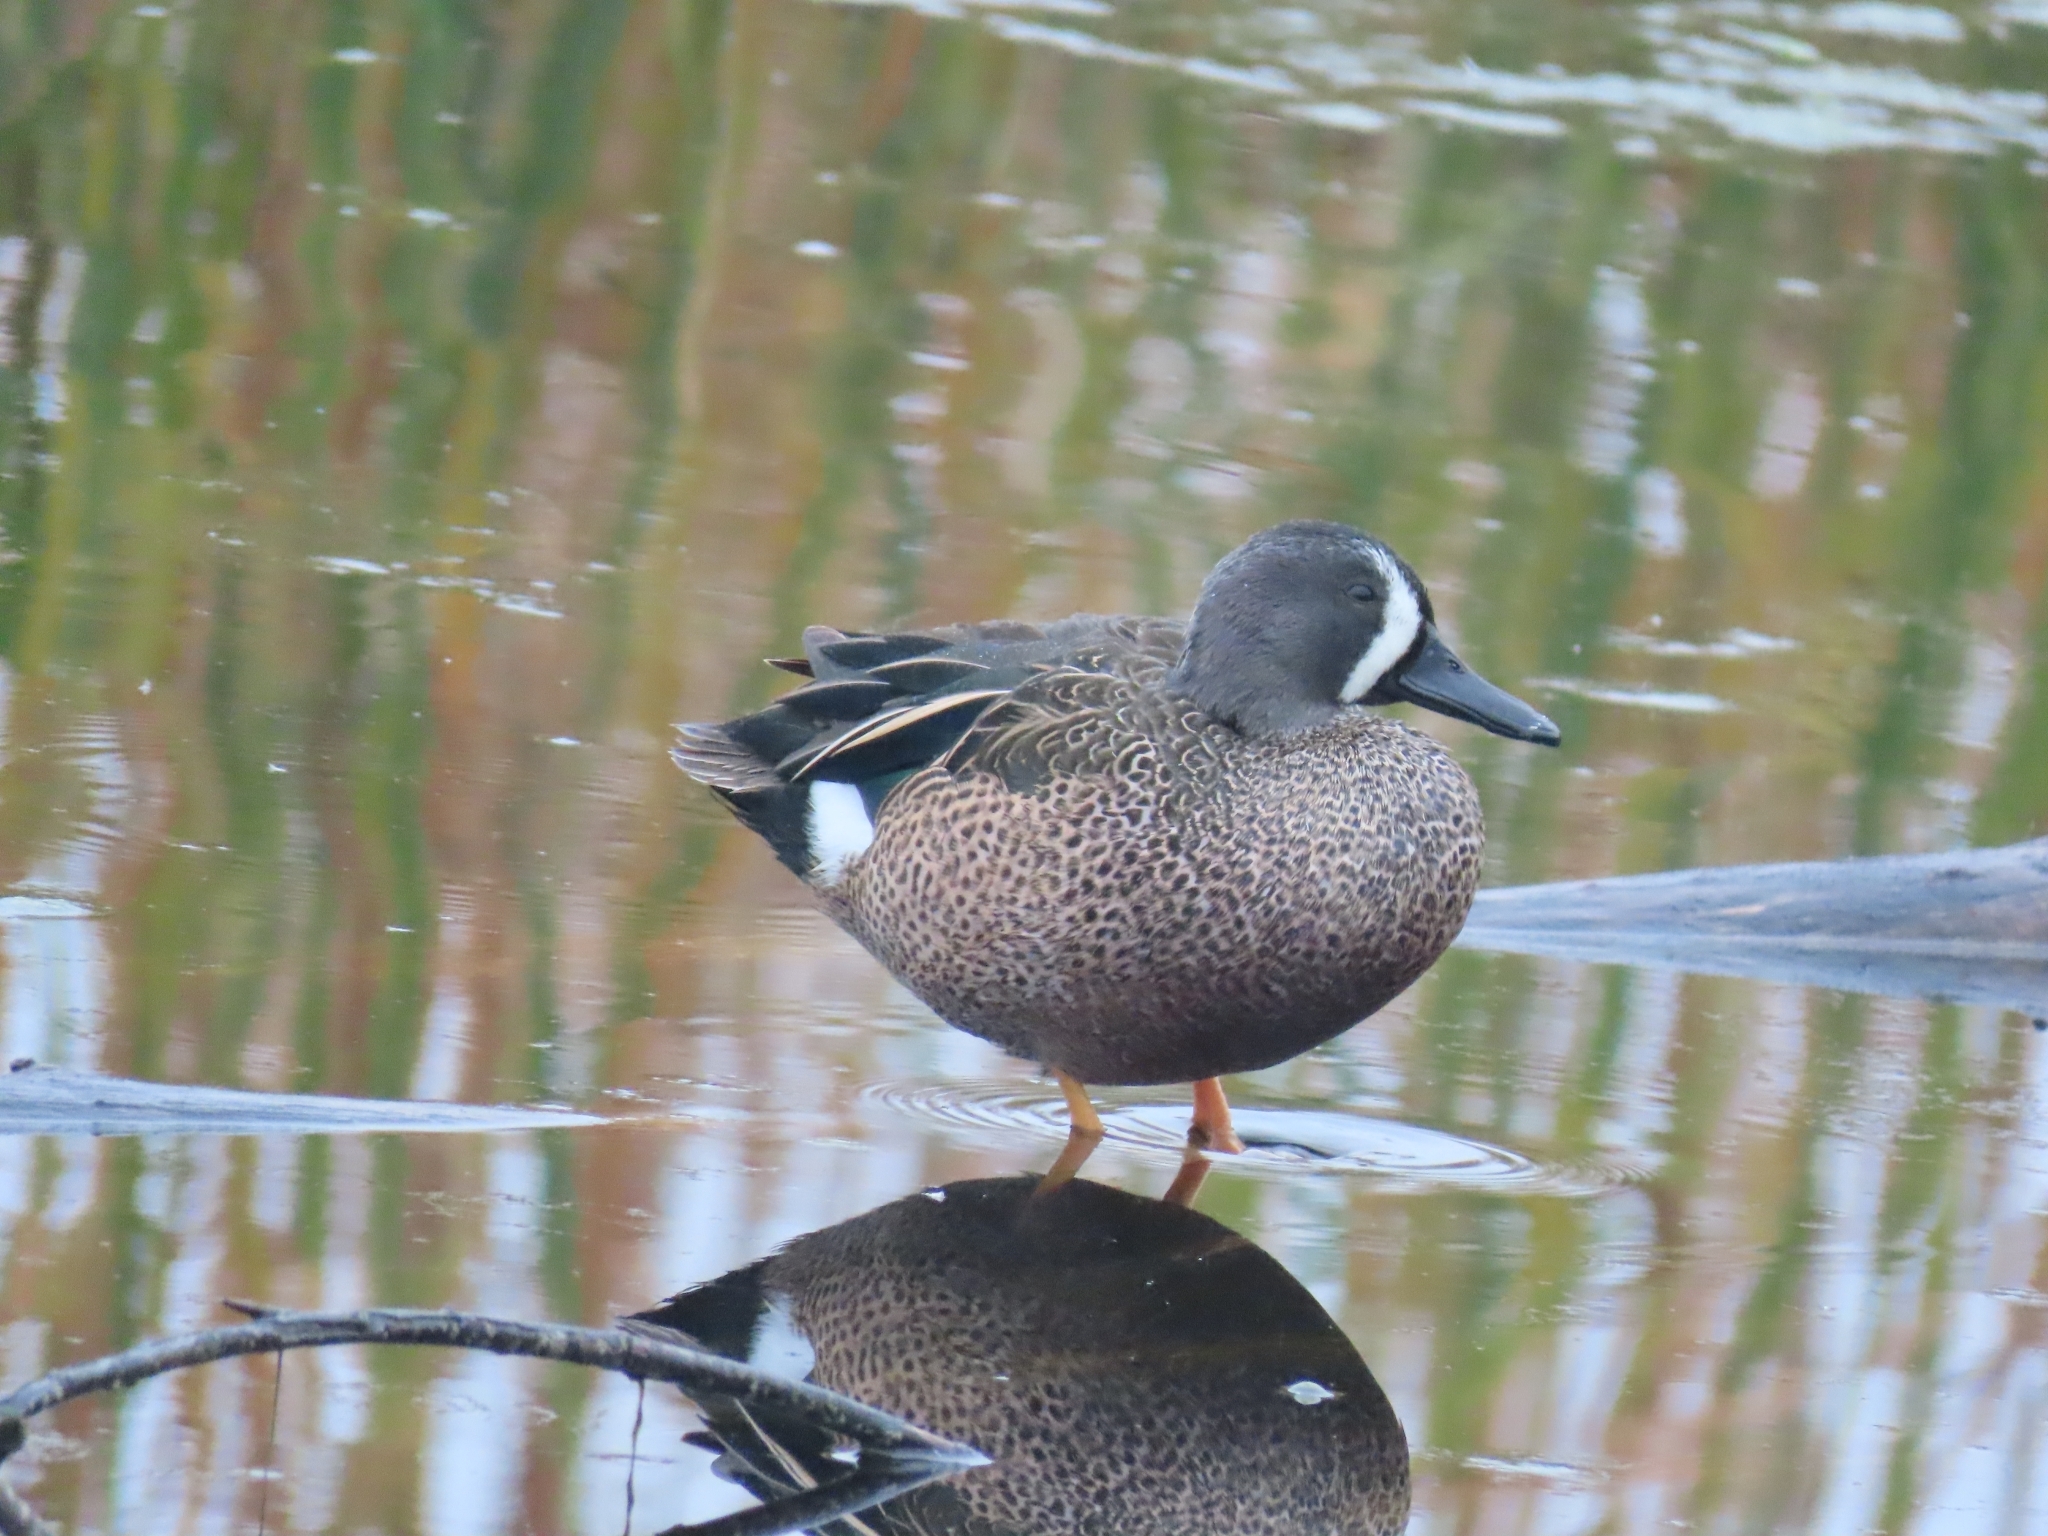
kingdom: Animalia
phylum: Chordata
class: Aves
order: Anseriformes
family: Anatidae
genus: Spatula
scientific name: Spatula discors
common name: Blue-winged teal
